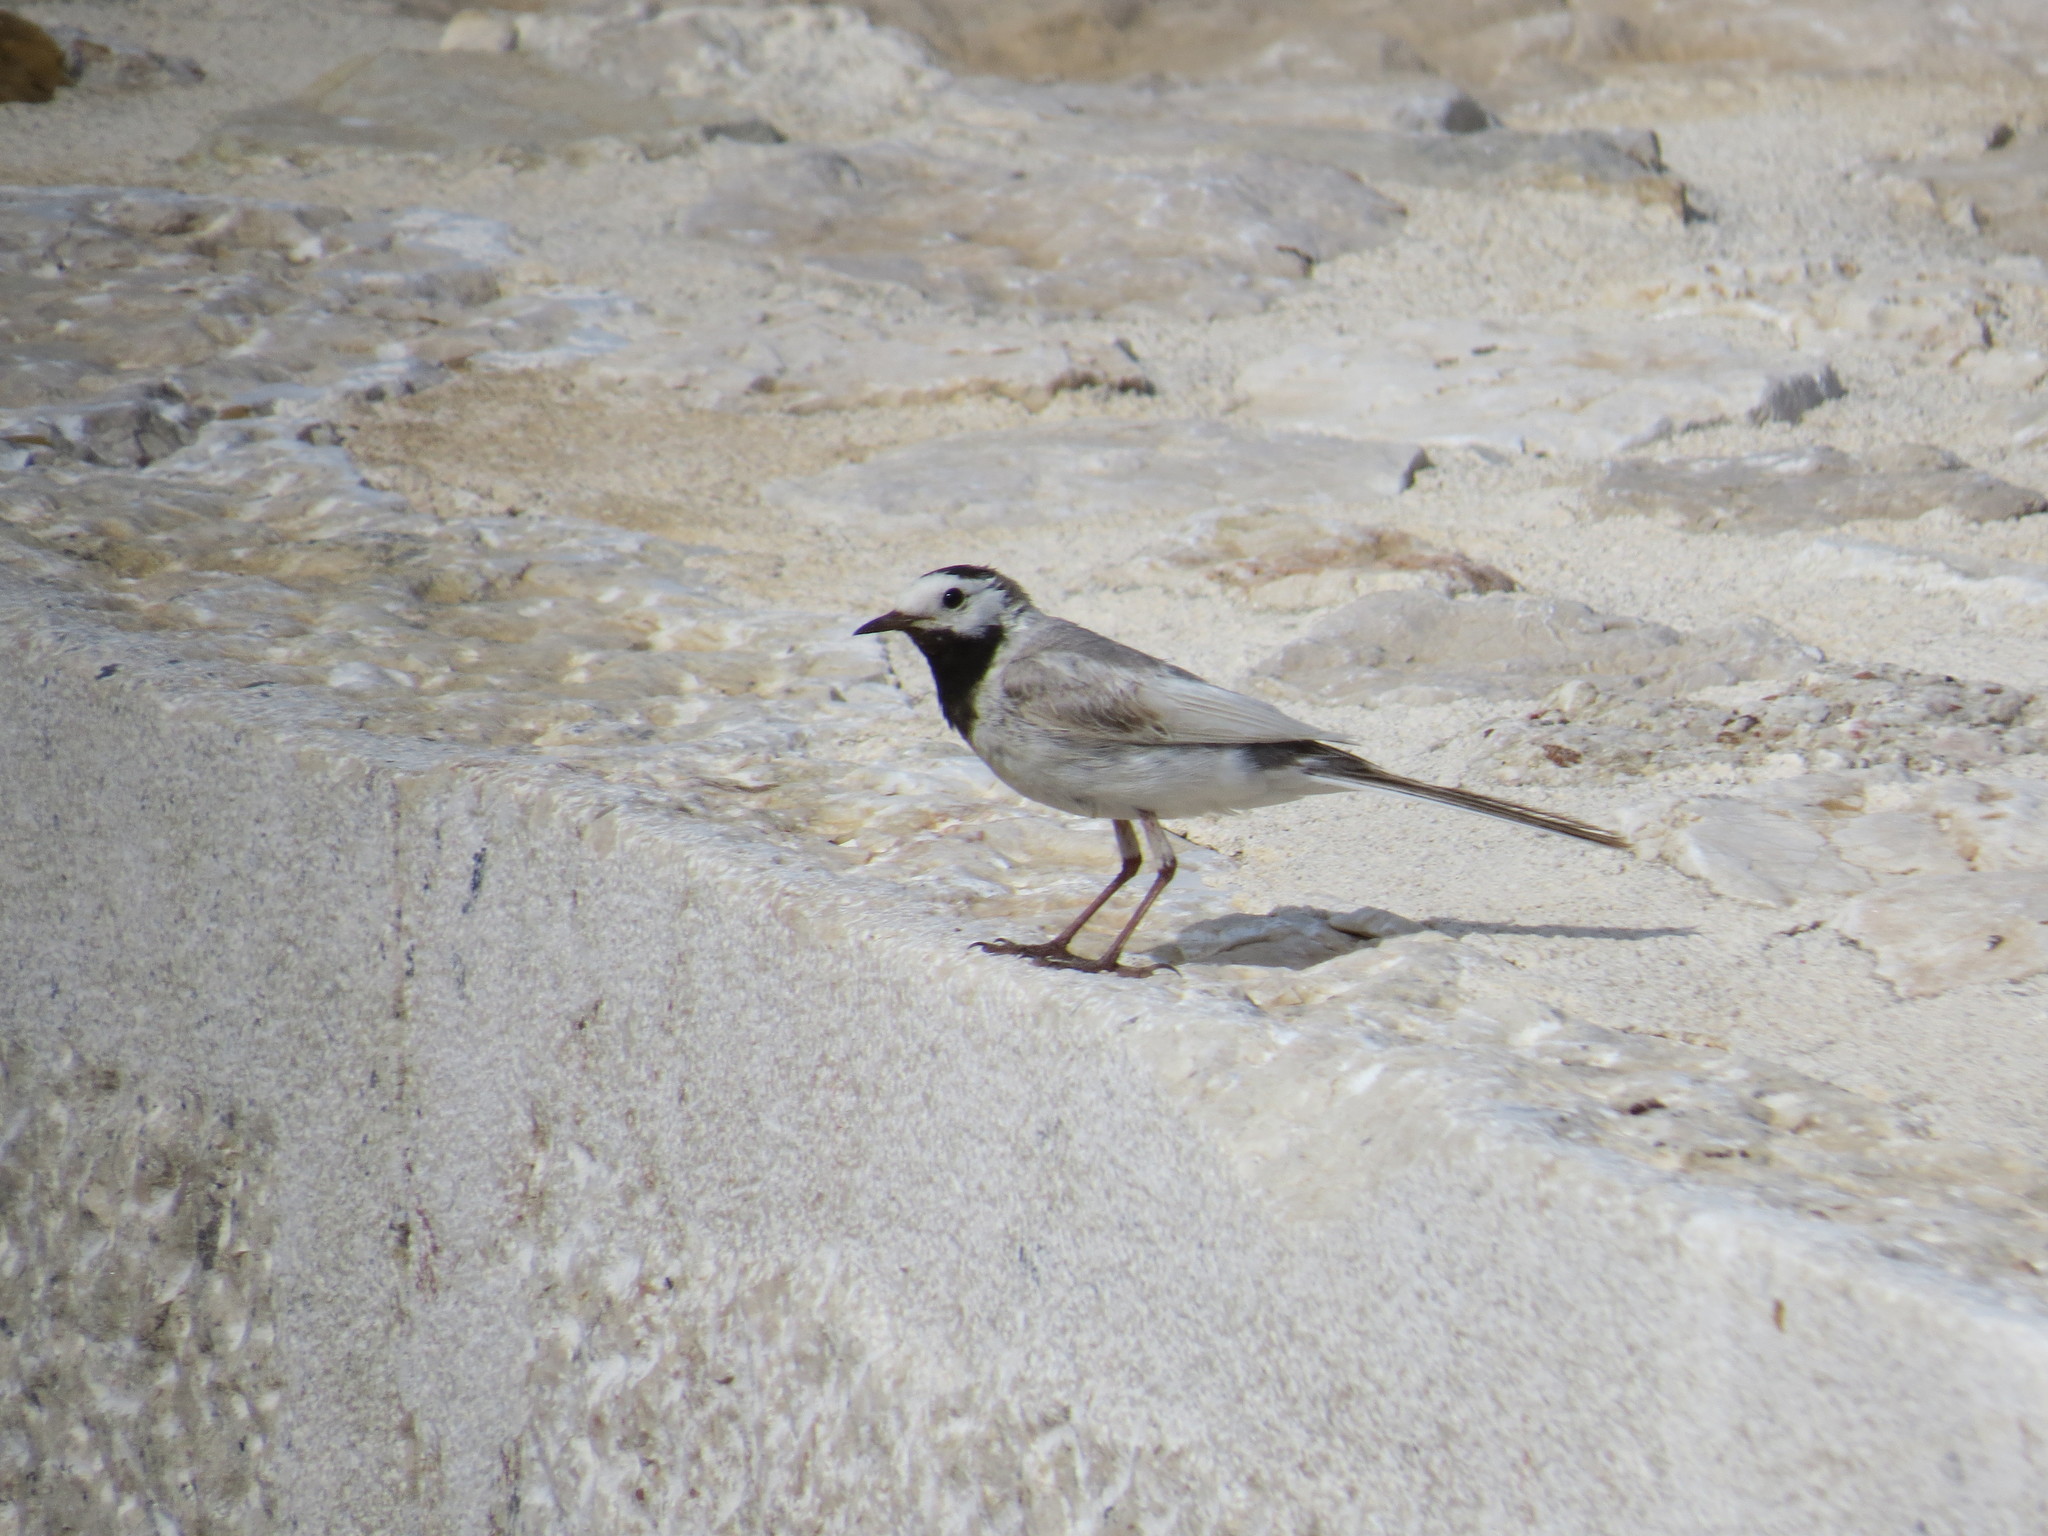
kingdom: Animalia
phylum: Chordata
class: Aves
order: Passeriformes
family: Motacillidae
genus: Motacilla
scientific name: Motacilla alba
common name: White wagtail
